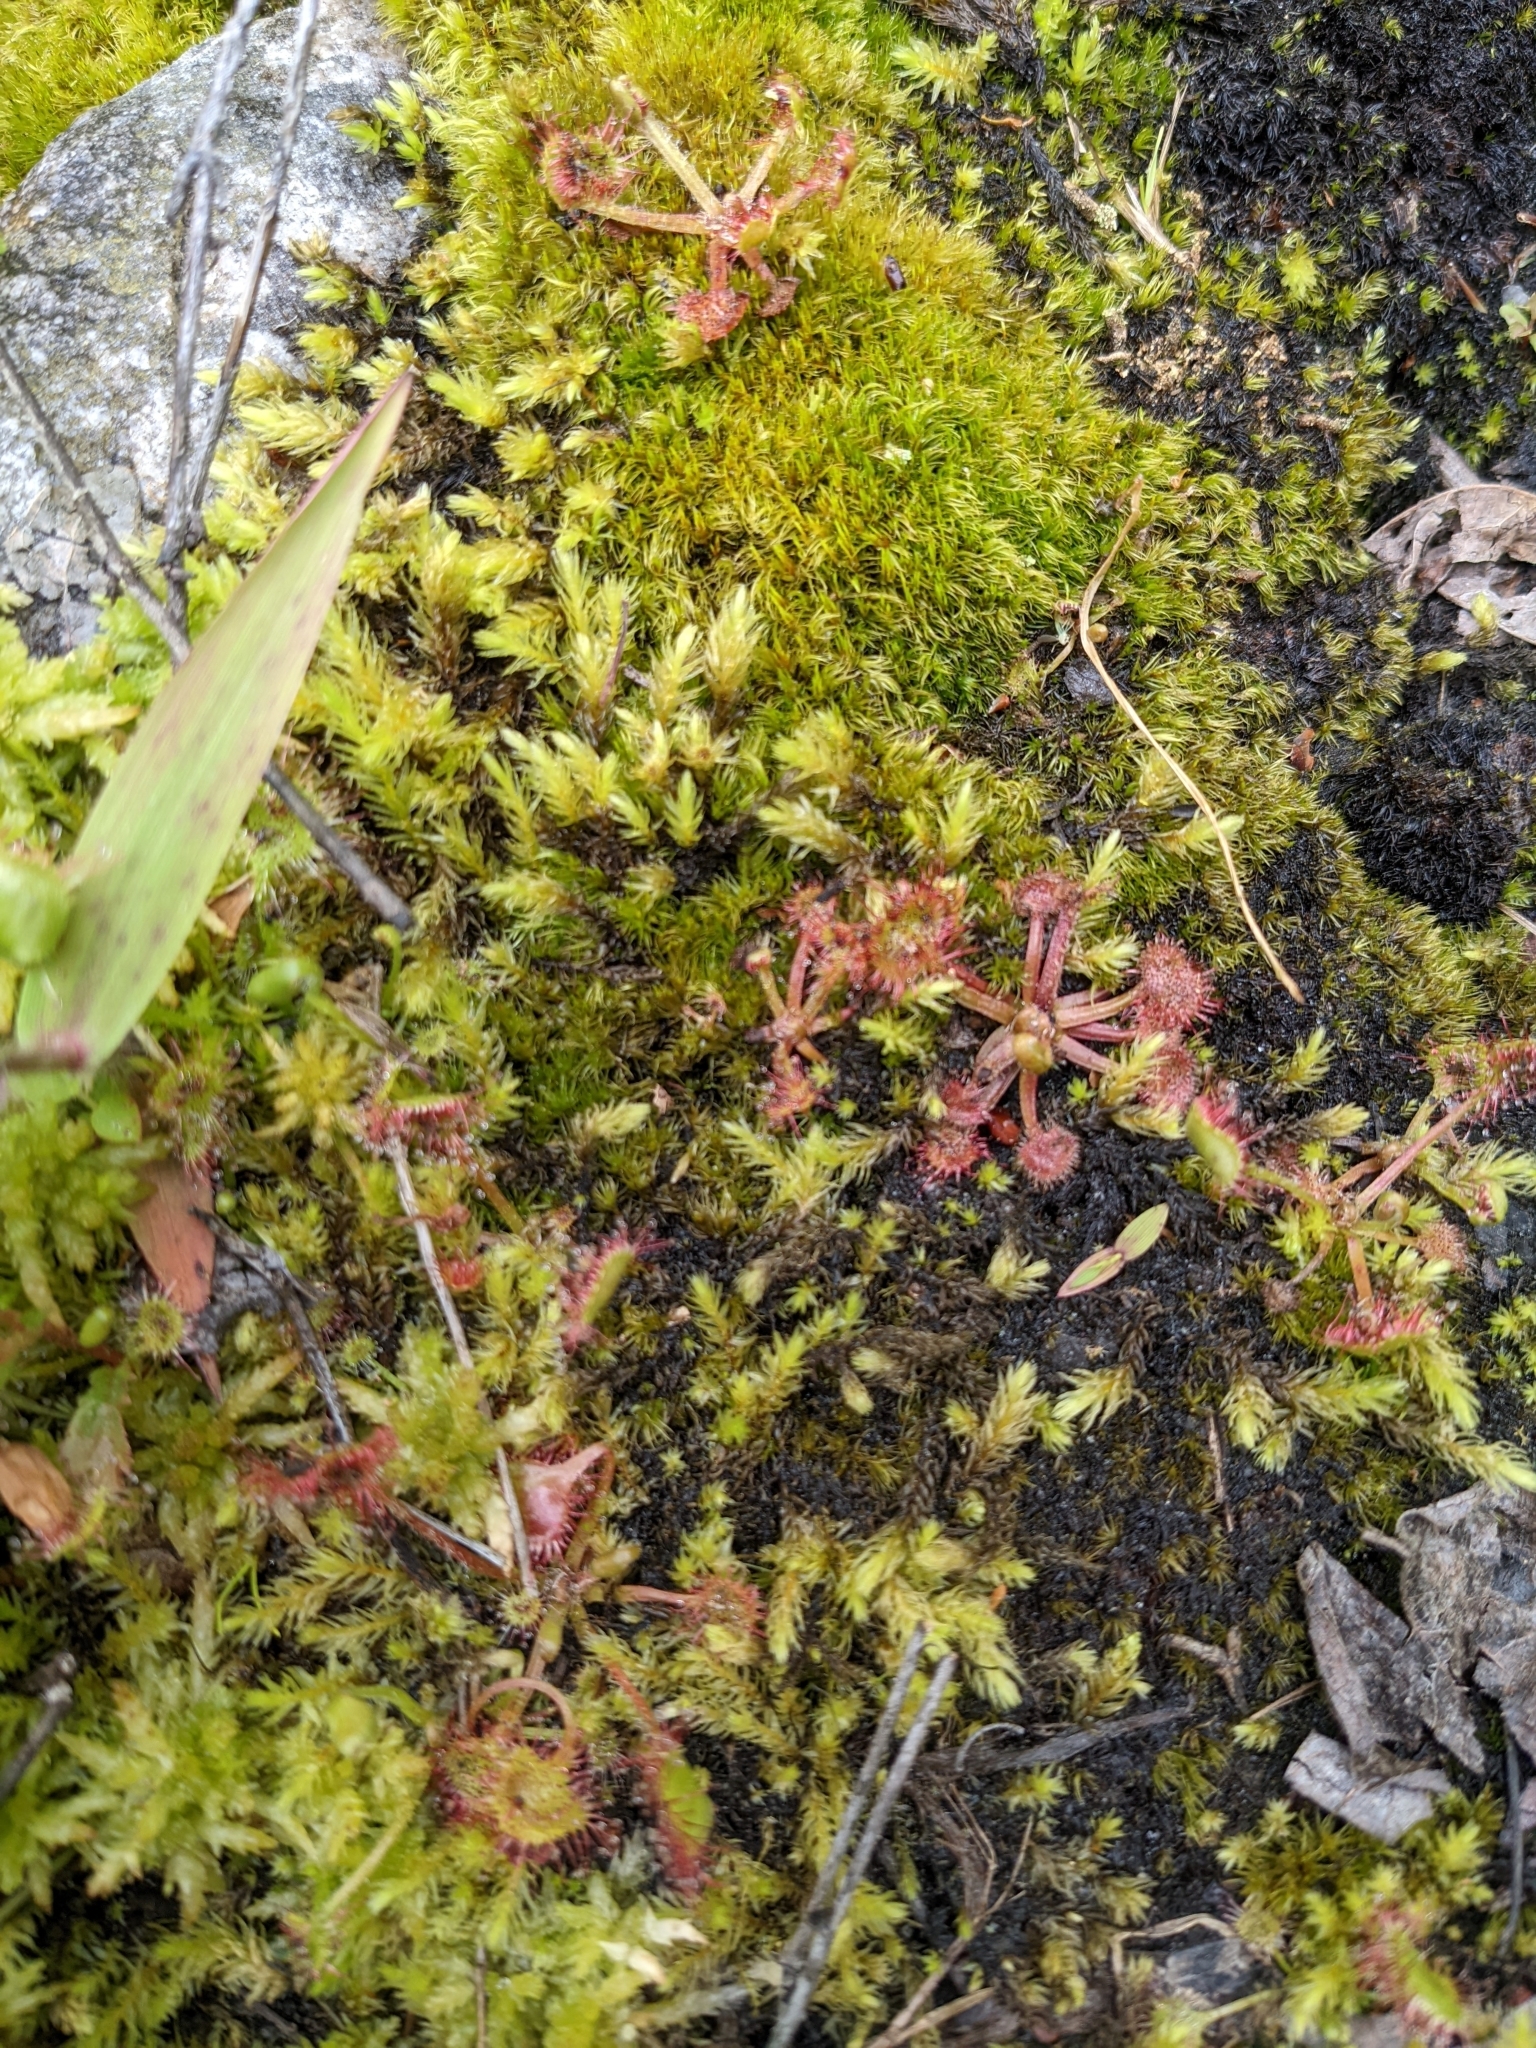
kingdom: Plantae
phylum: Tracheophyta
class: Magnoliopsida
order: Caryophyllales
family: Droseraceae
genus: Drosera
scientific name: Drosera rotundifolia
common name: Round-leaved sundew
